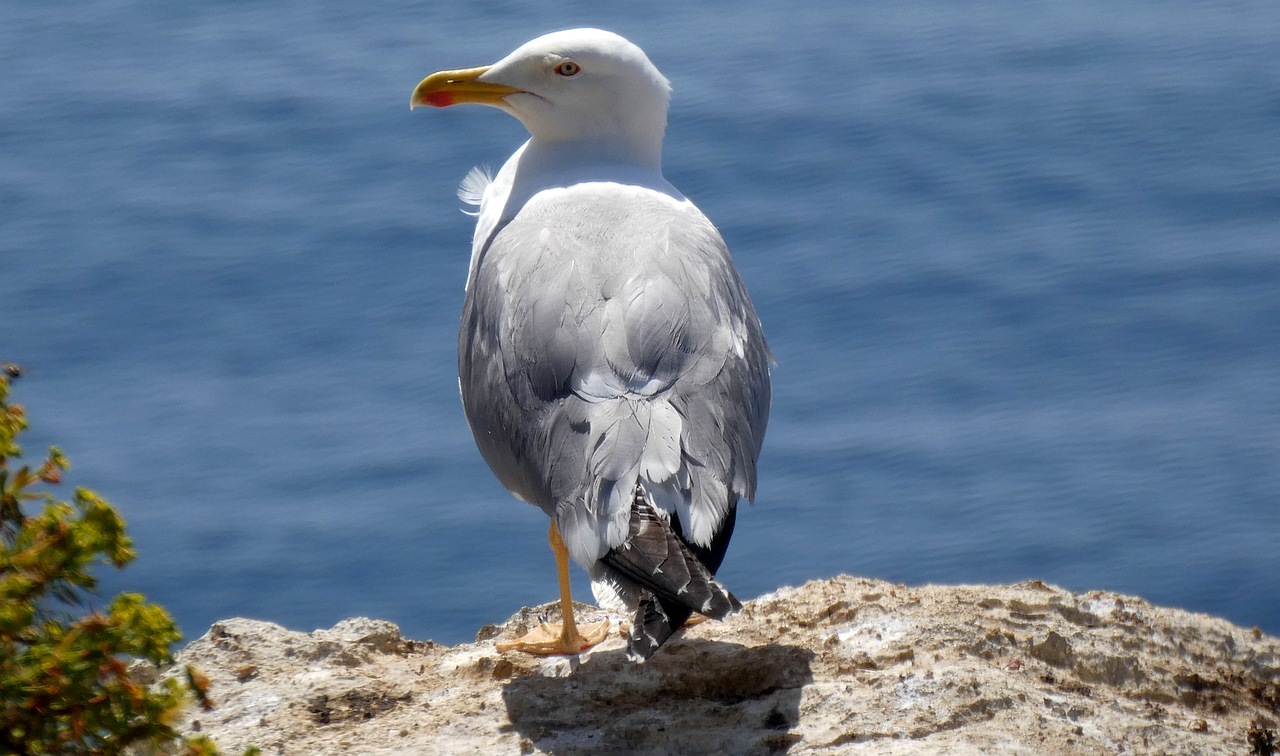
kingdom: Animalia
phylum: Chordata
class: Aves
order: Charadriiformes
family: Laridae
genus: Larus
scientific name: Larus michahellis
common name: Yellow-legged gull
